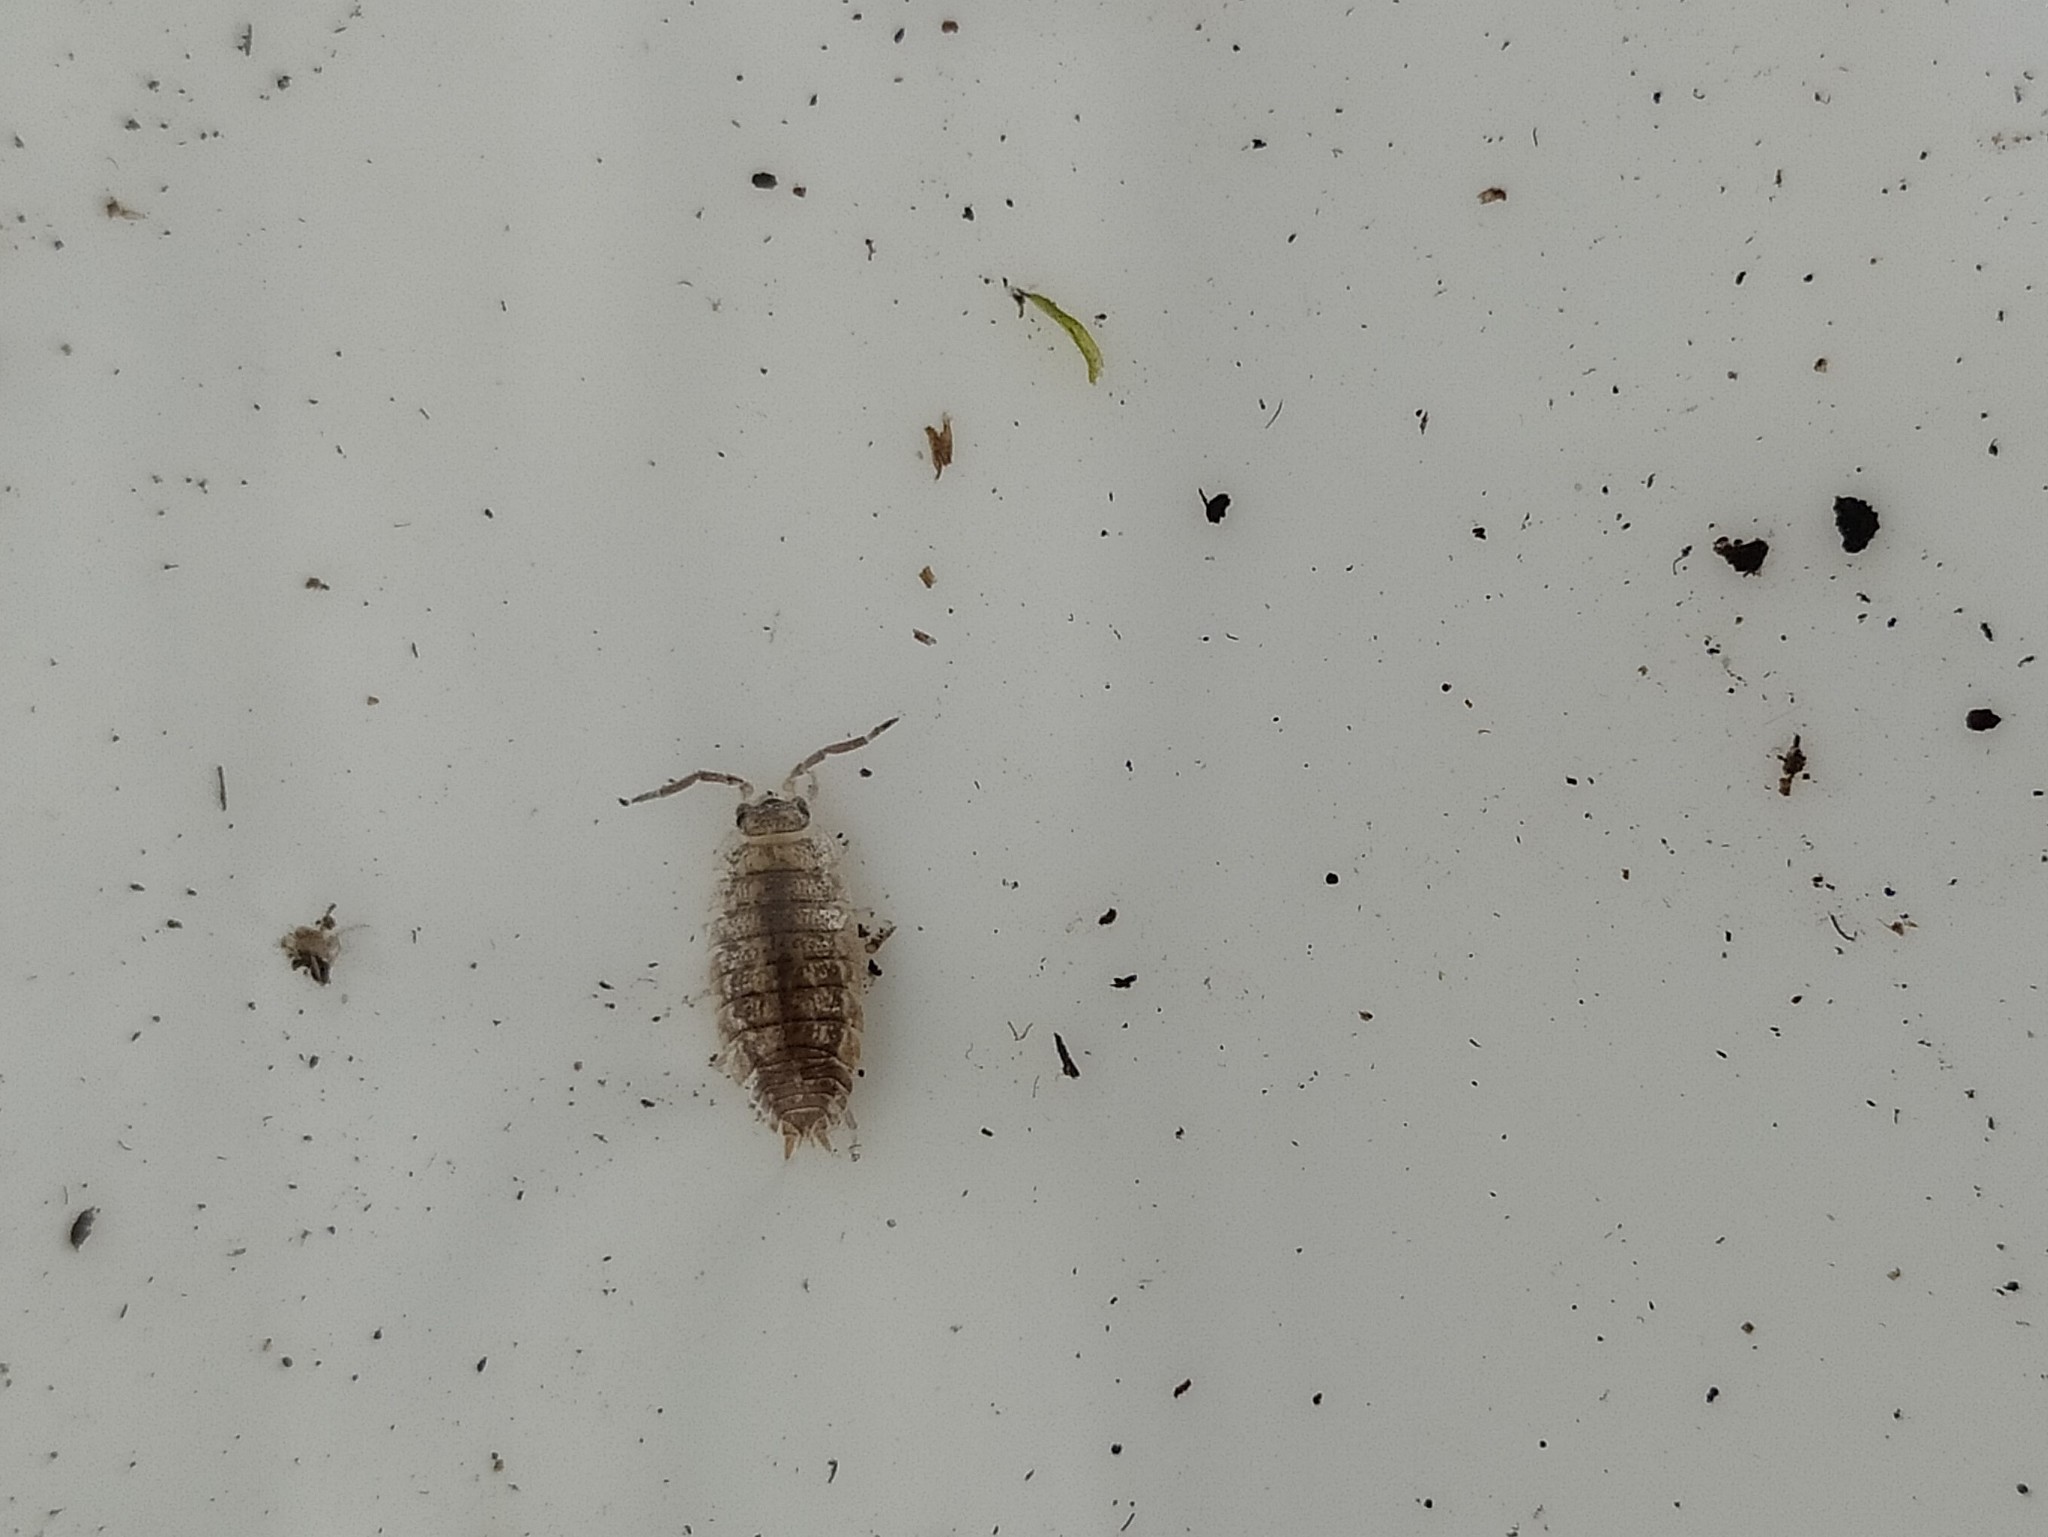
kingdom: Animalia
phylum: Arthropoda
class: Malacostraca
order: Isopoda
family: Porcellionidae
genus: Porcellio
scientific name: Porcellio scaber
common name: Common rough woodlouse
